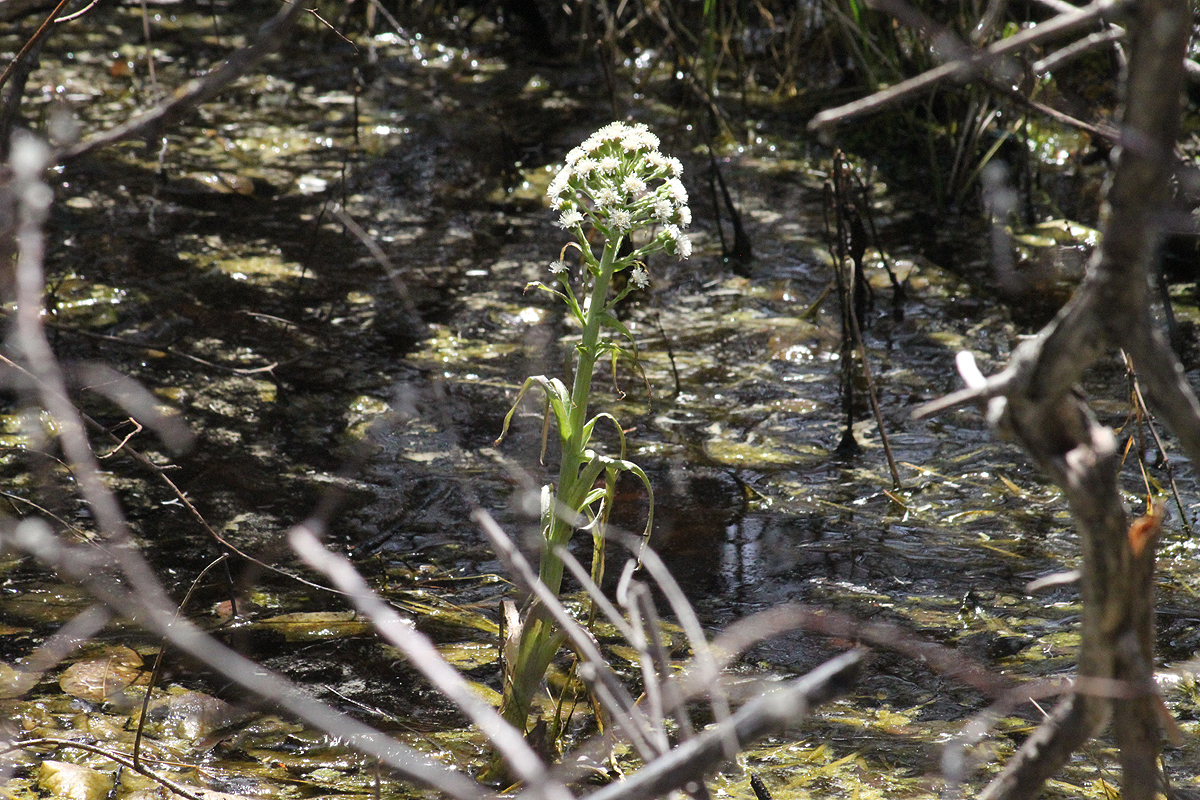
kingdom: Plantae
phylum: Tracheophyta
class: Magnoliopsida
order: Asterales
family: Asteraceae
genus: Petasites
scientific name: Petasites frigidus
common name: Arctic butterbur
